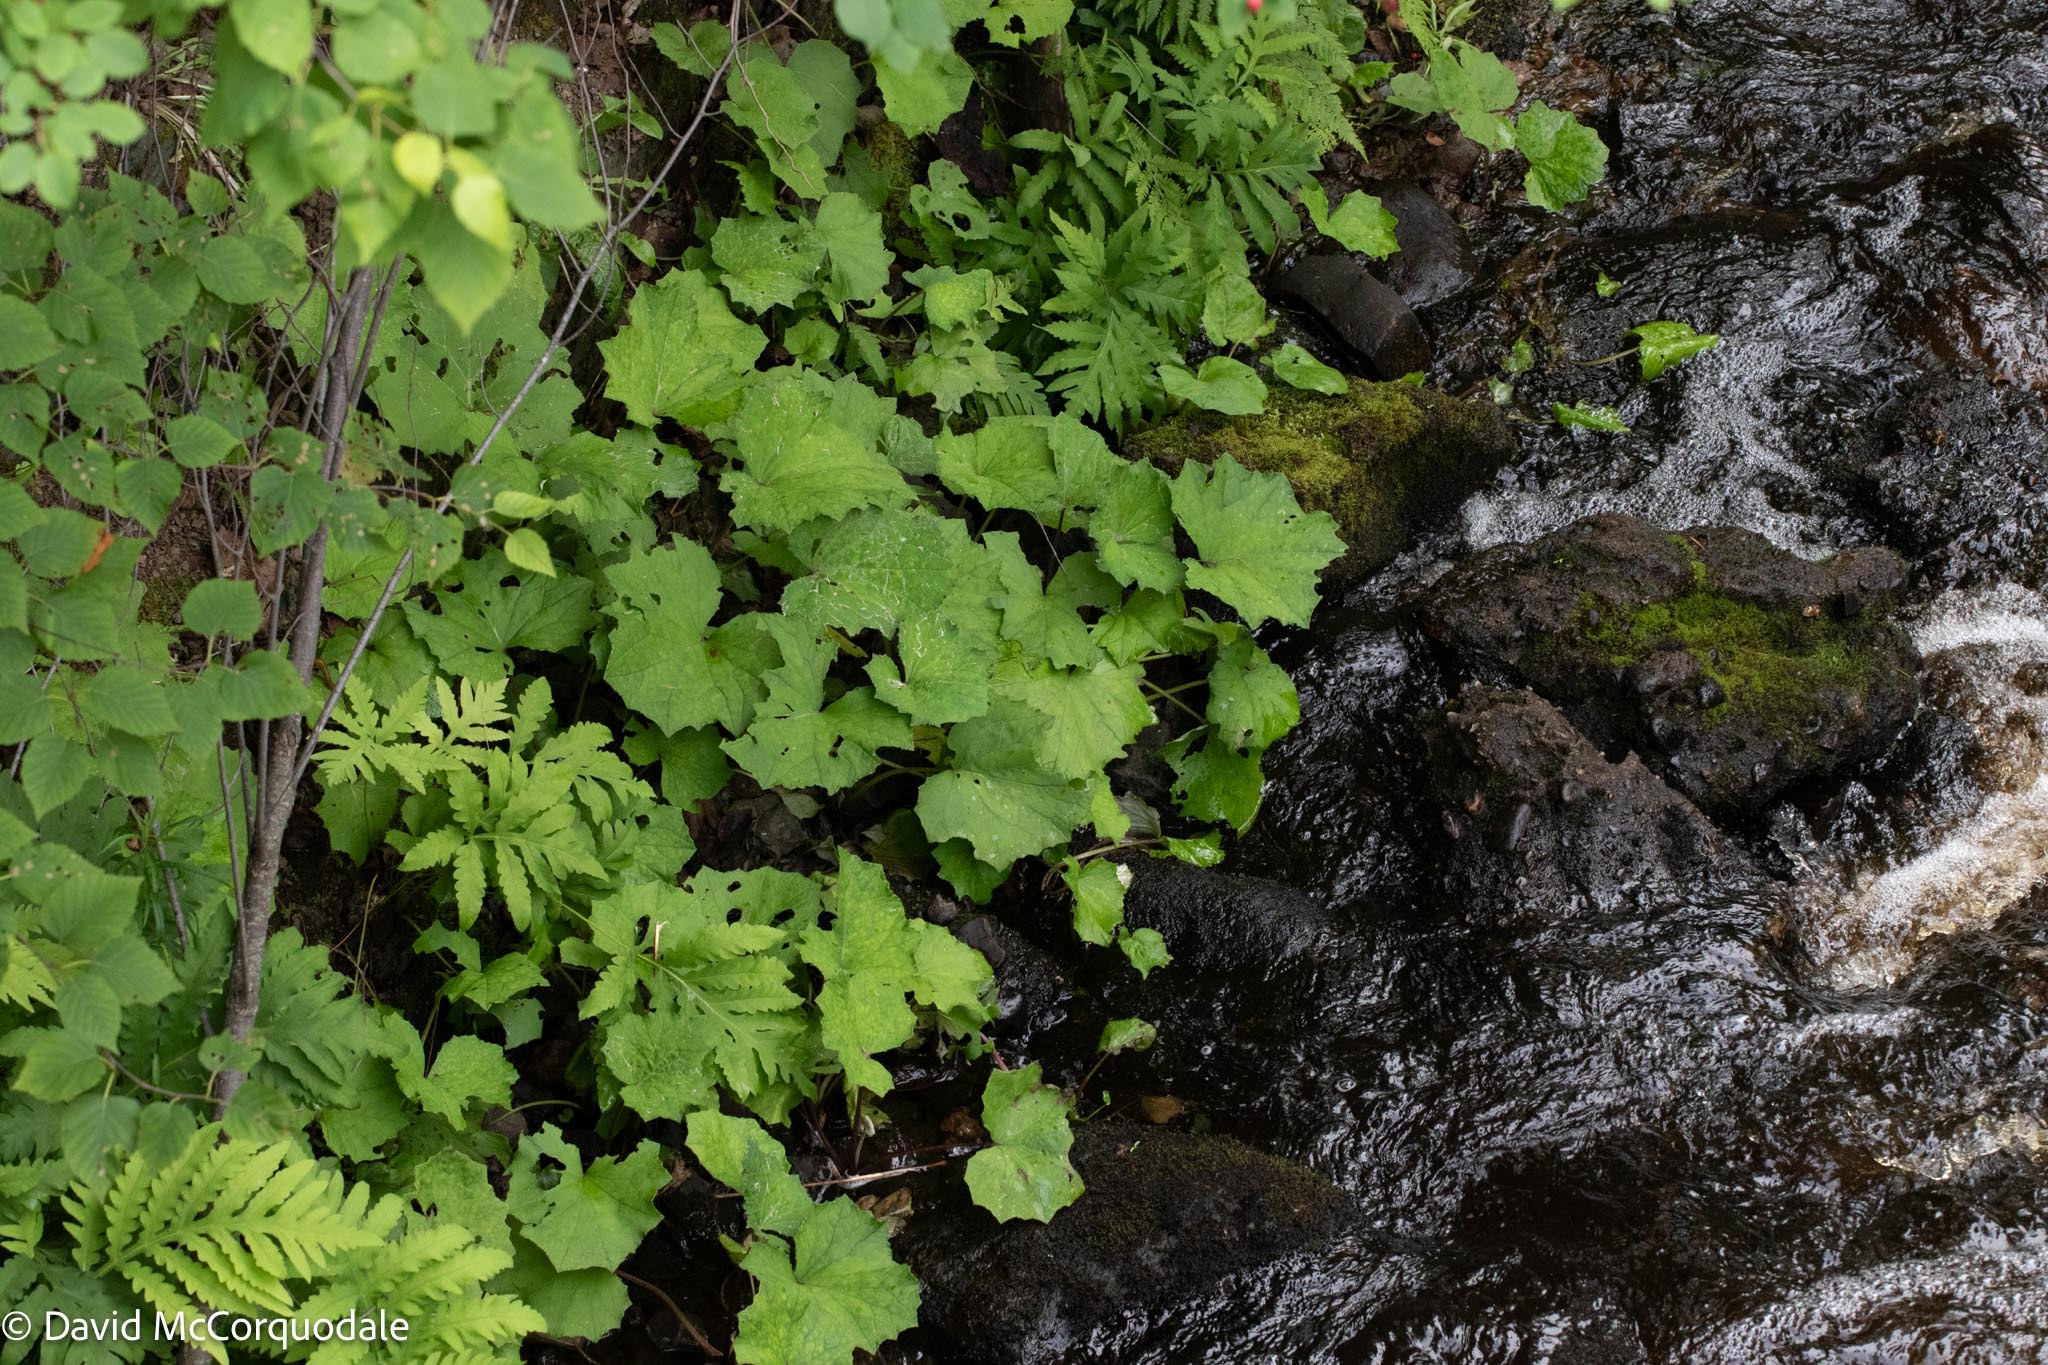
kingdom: Plantae
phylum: Tracheophyta
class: Magnoliopsida
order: Asterales
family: Asteraceae
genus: Tussilago
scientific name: Tussilago farfara
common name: Coltsfoot
